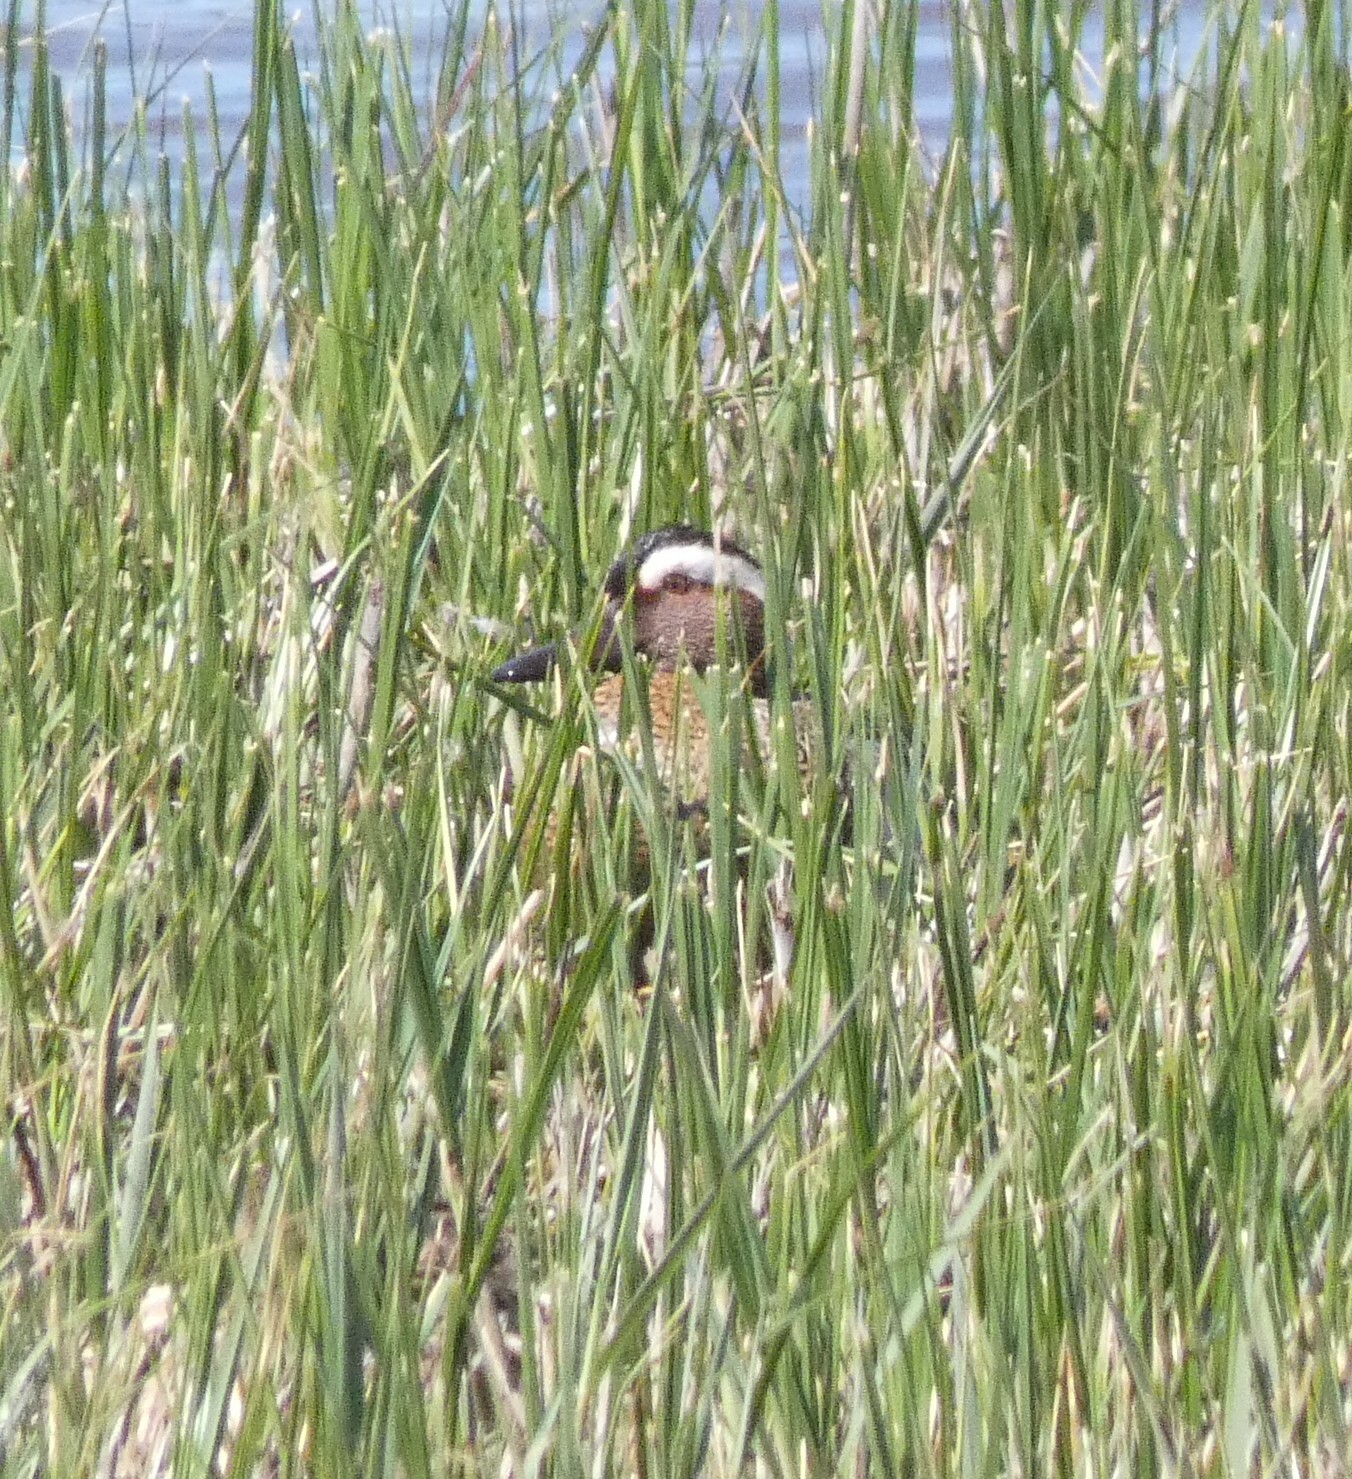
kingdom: Animalia
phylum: Chordata
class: Aves
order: Anseriformes
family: Anatidae
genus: Spatula
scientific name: Spatula querquedula
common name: Garganey
